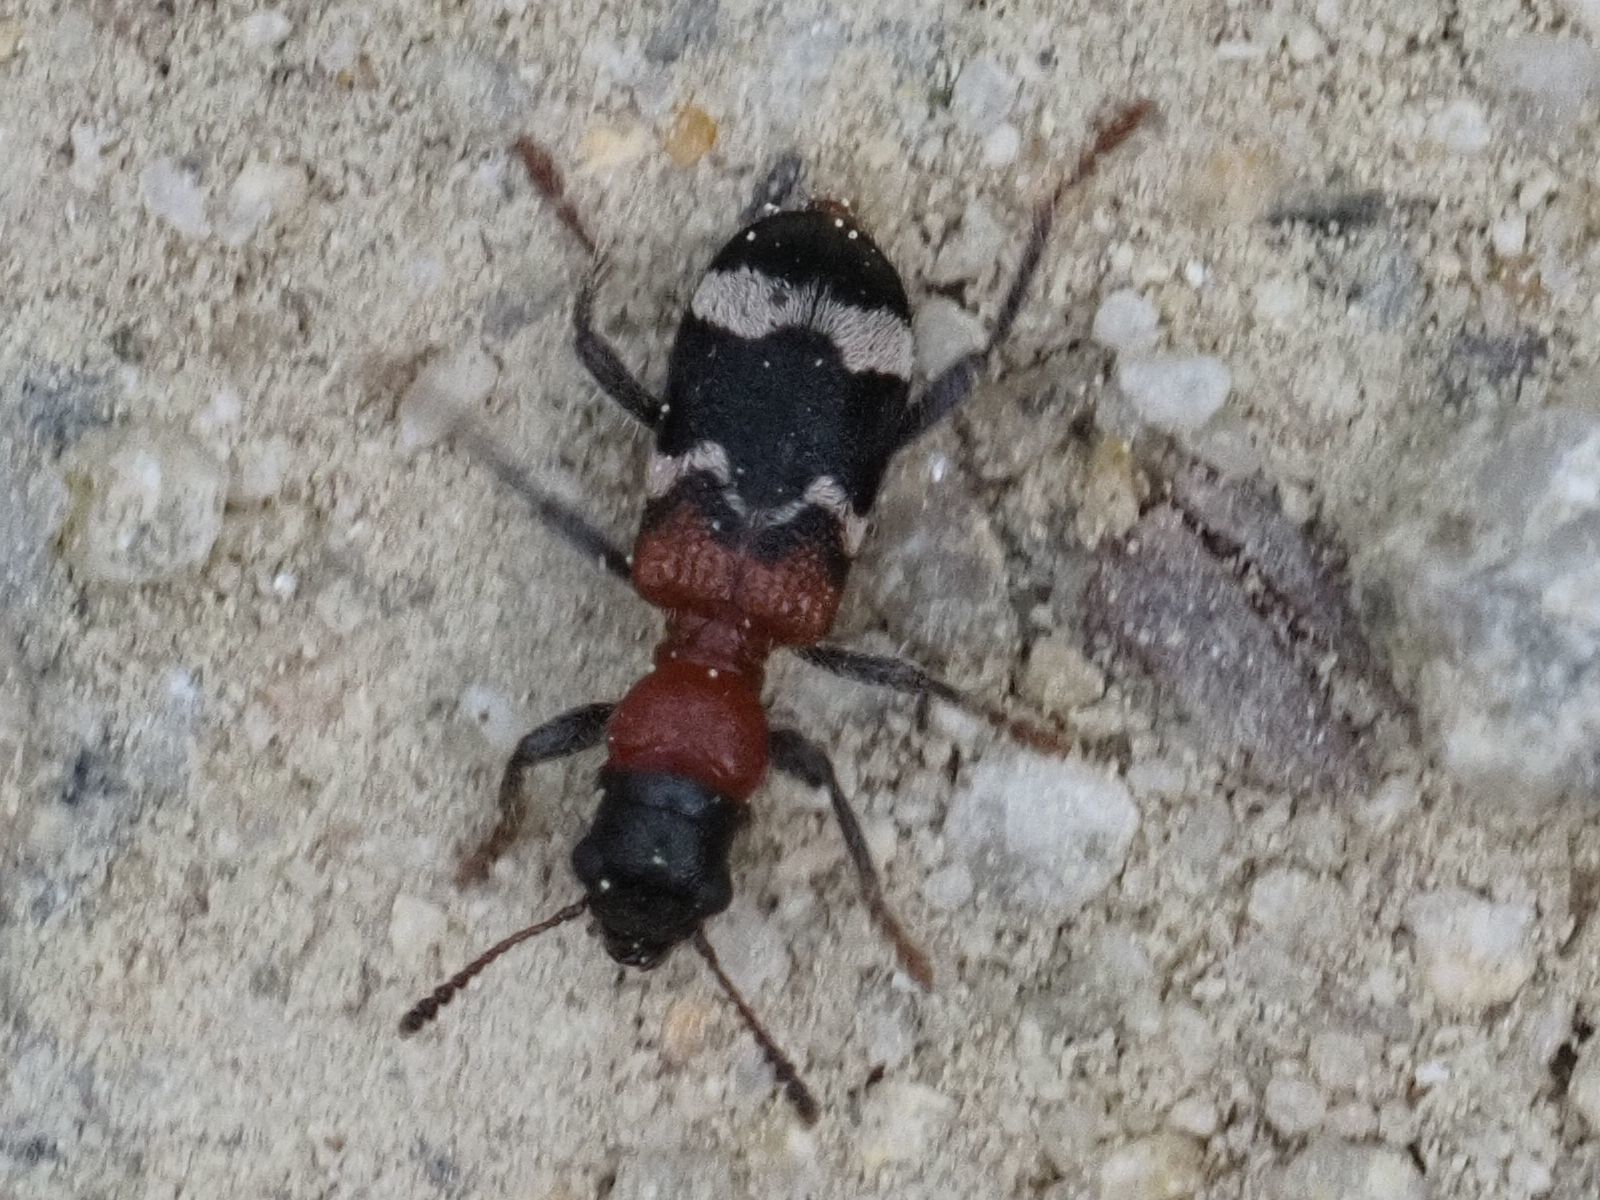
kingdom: Animalia
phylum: Arthropoda
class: Insecta
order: Coleoptera
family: Cleridae
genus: Thanasimus
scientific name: Thanasimus formicarius
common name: Ant beetle
